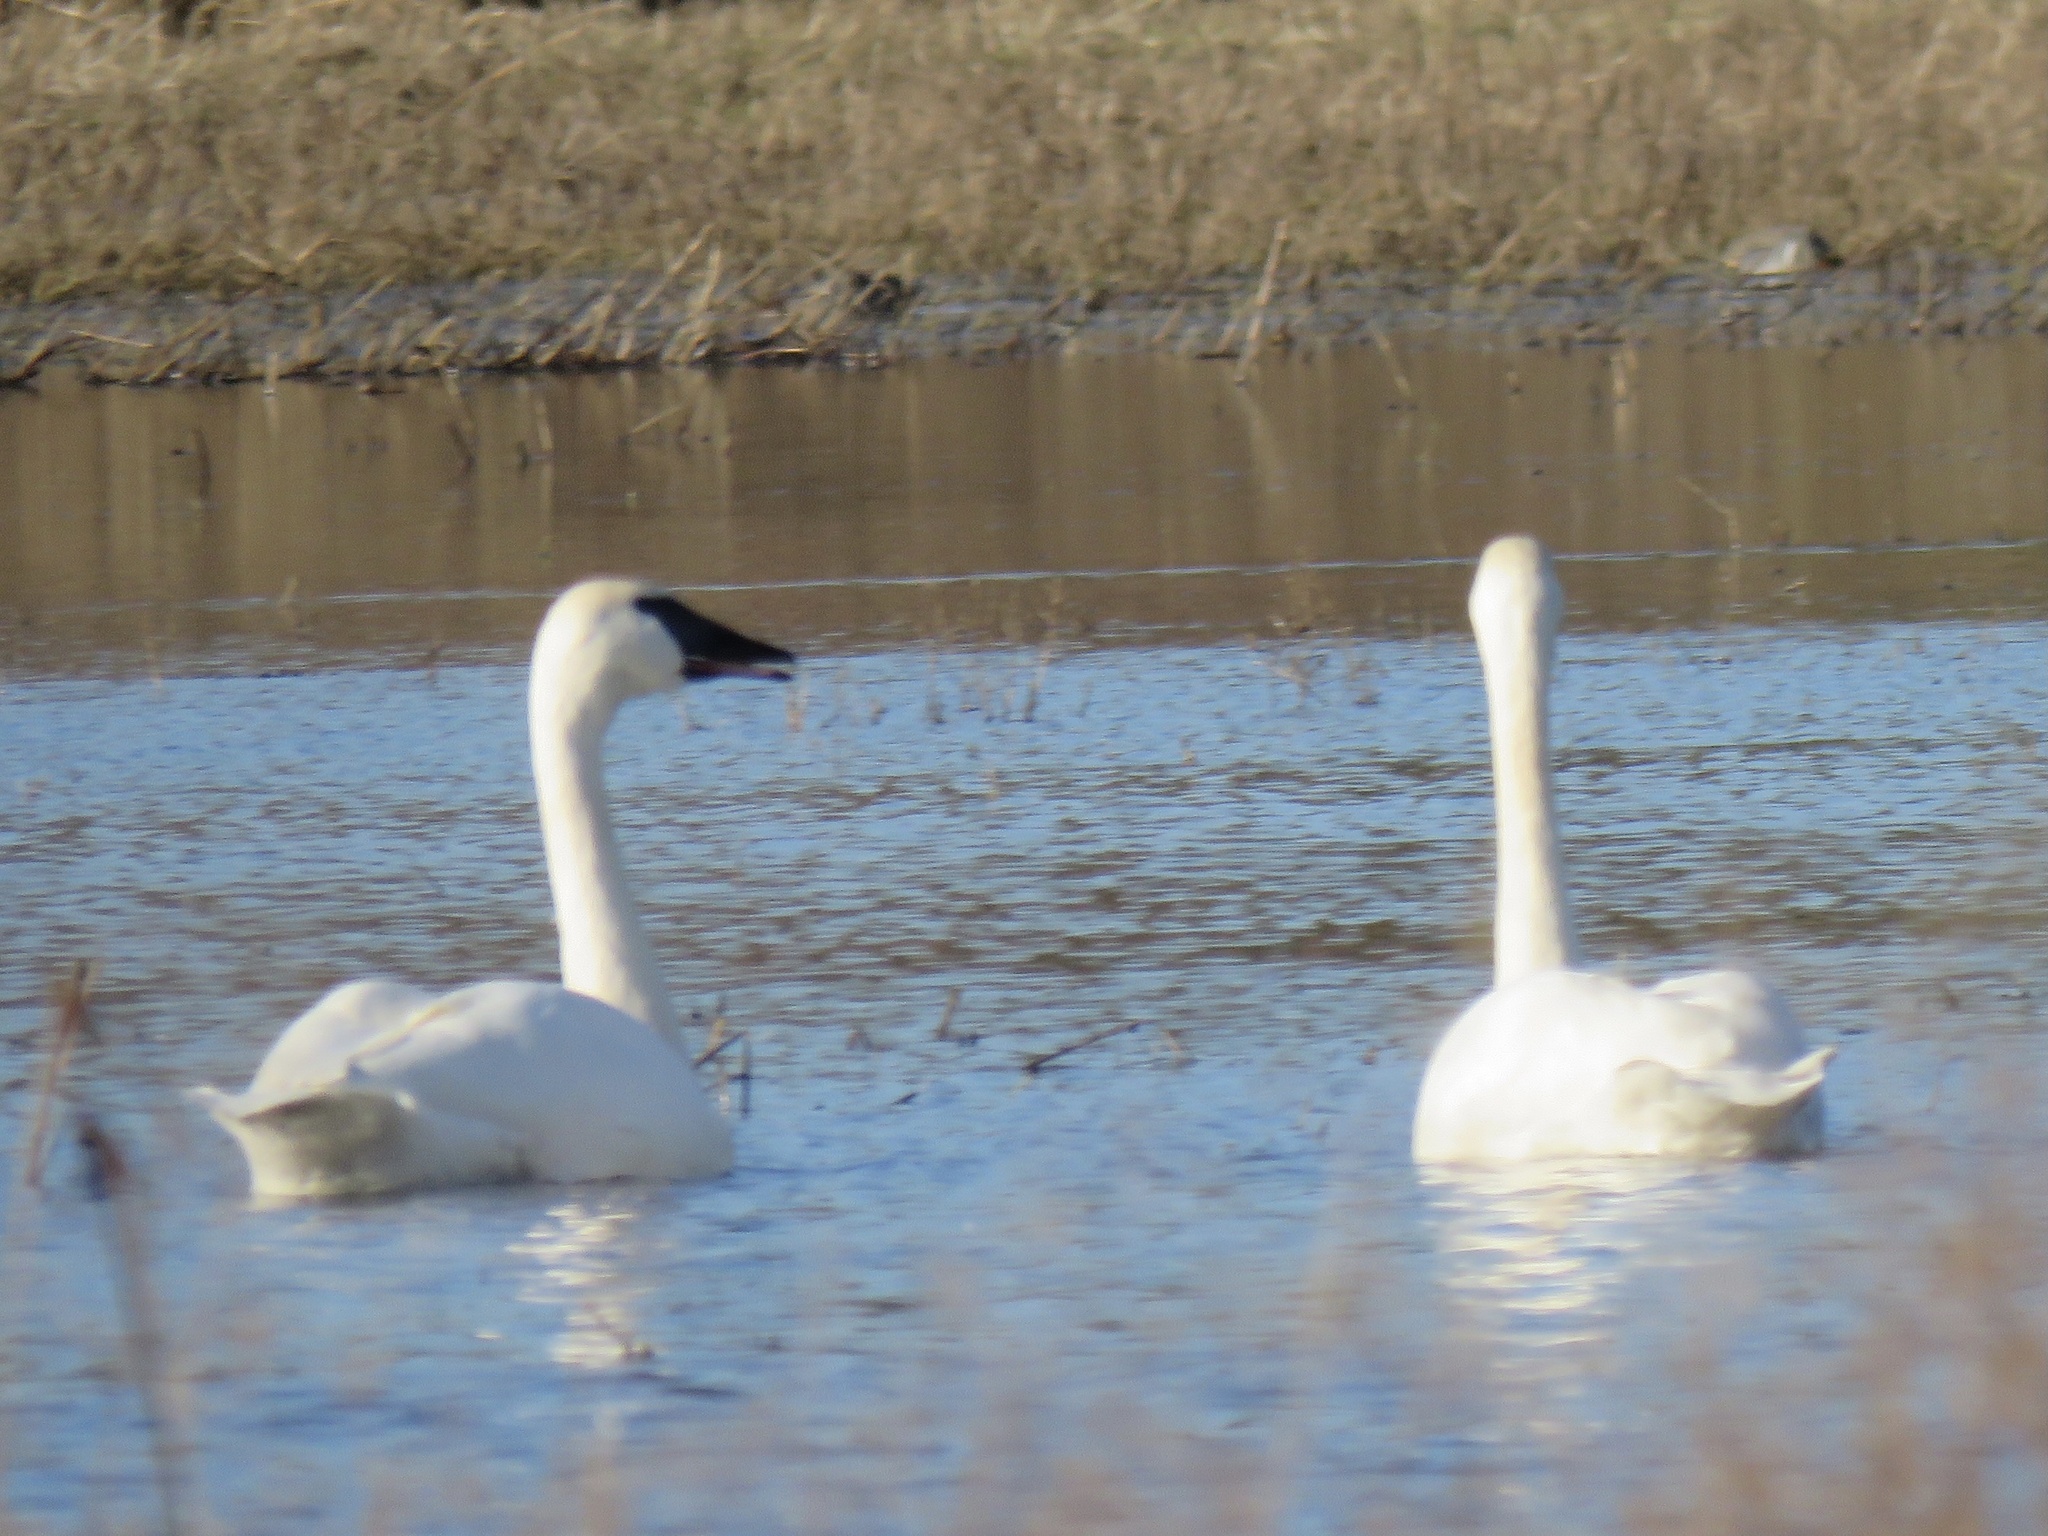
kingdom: Animalia
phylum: Chordata
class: Aves
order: Anseriformes
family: Anatidae
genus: Cygnus
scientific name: Cygnus buccinator
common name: Trumpeter swan
